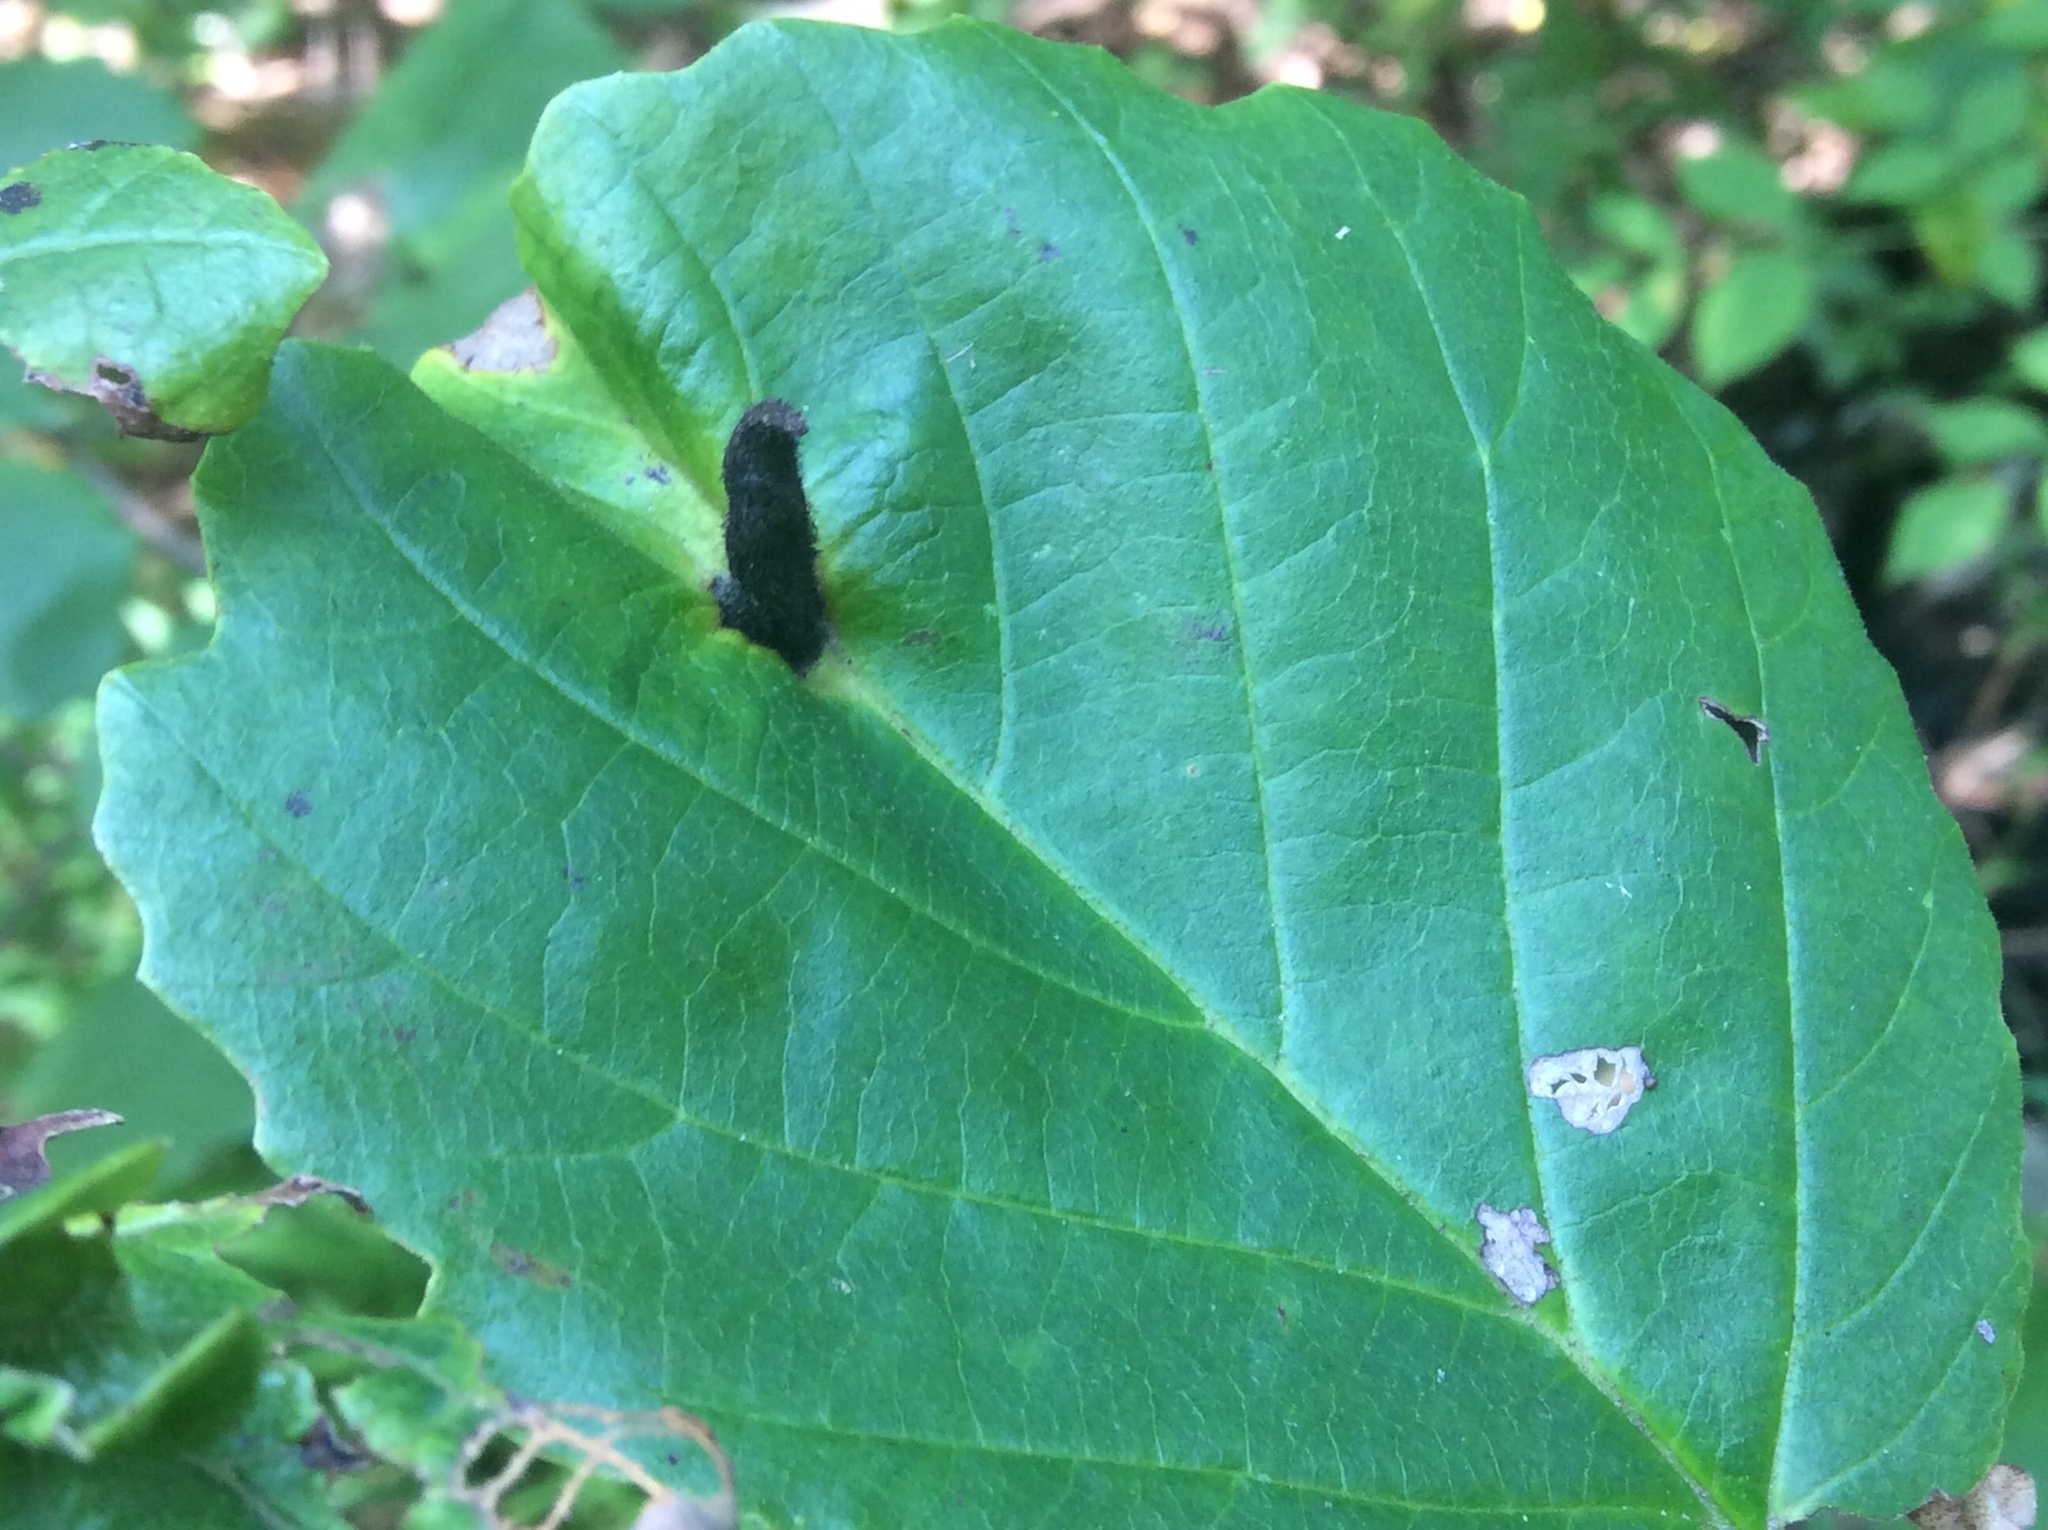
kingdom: Animalia
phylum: Arthropoda
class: Insecta
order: Hemiptera
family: Aphididae
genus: Hormaphis
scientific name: Hormaphis hamamelidis
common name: Witch-hazel cone gall aphid
